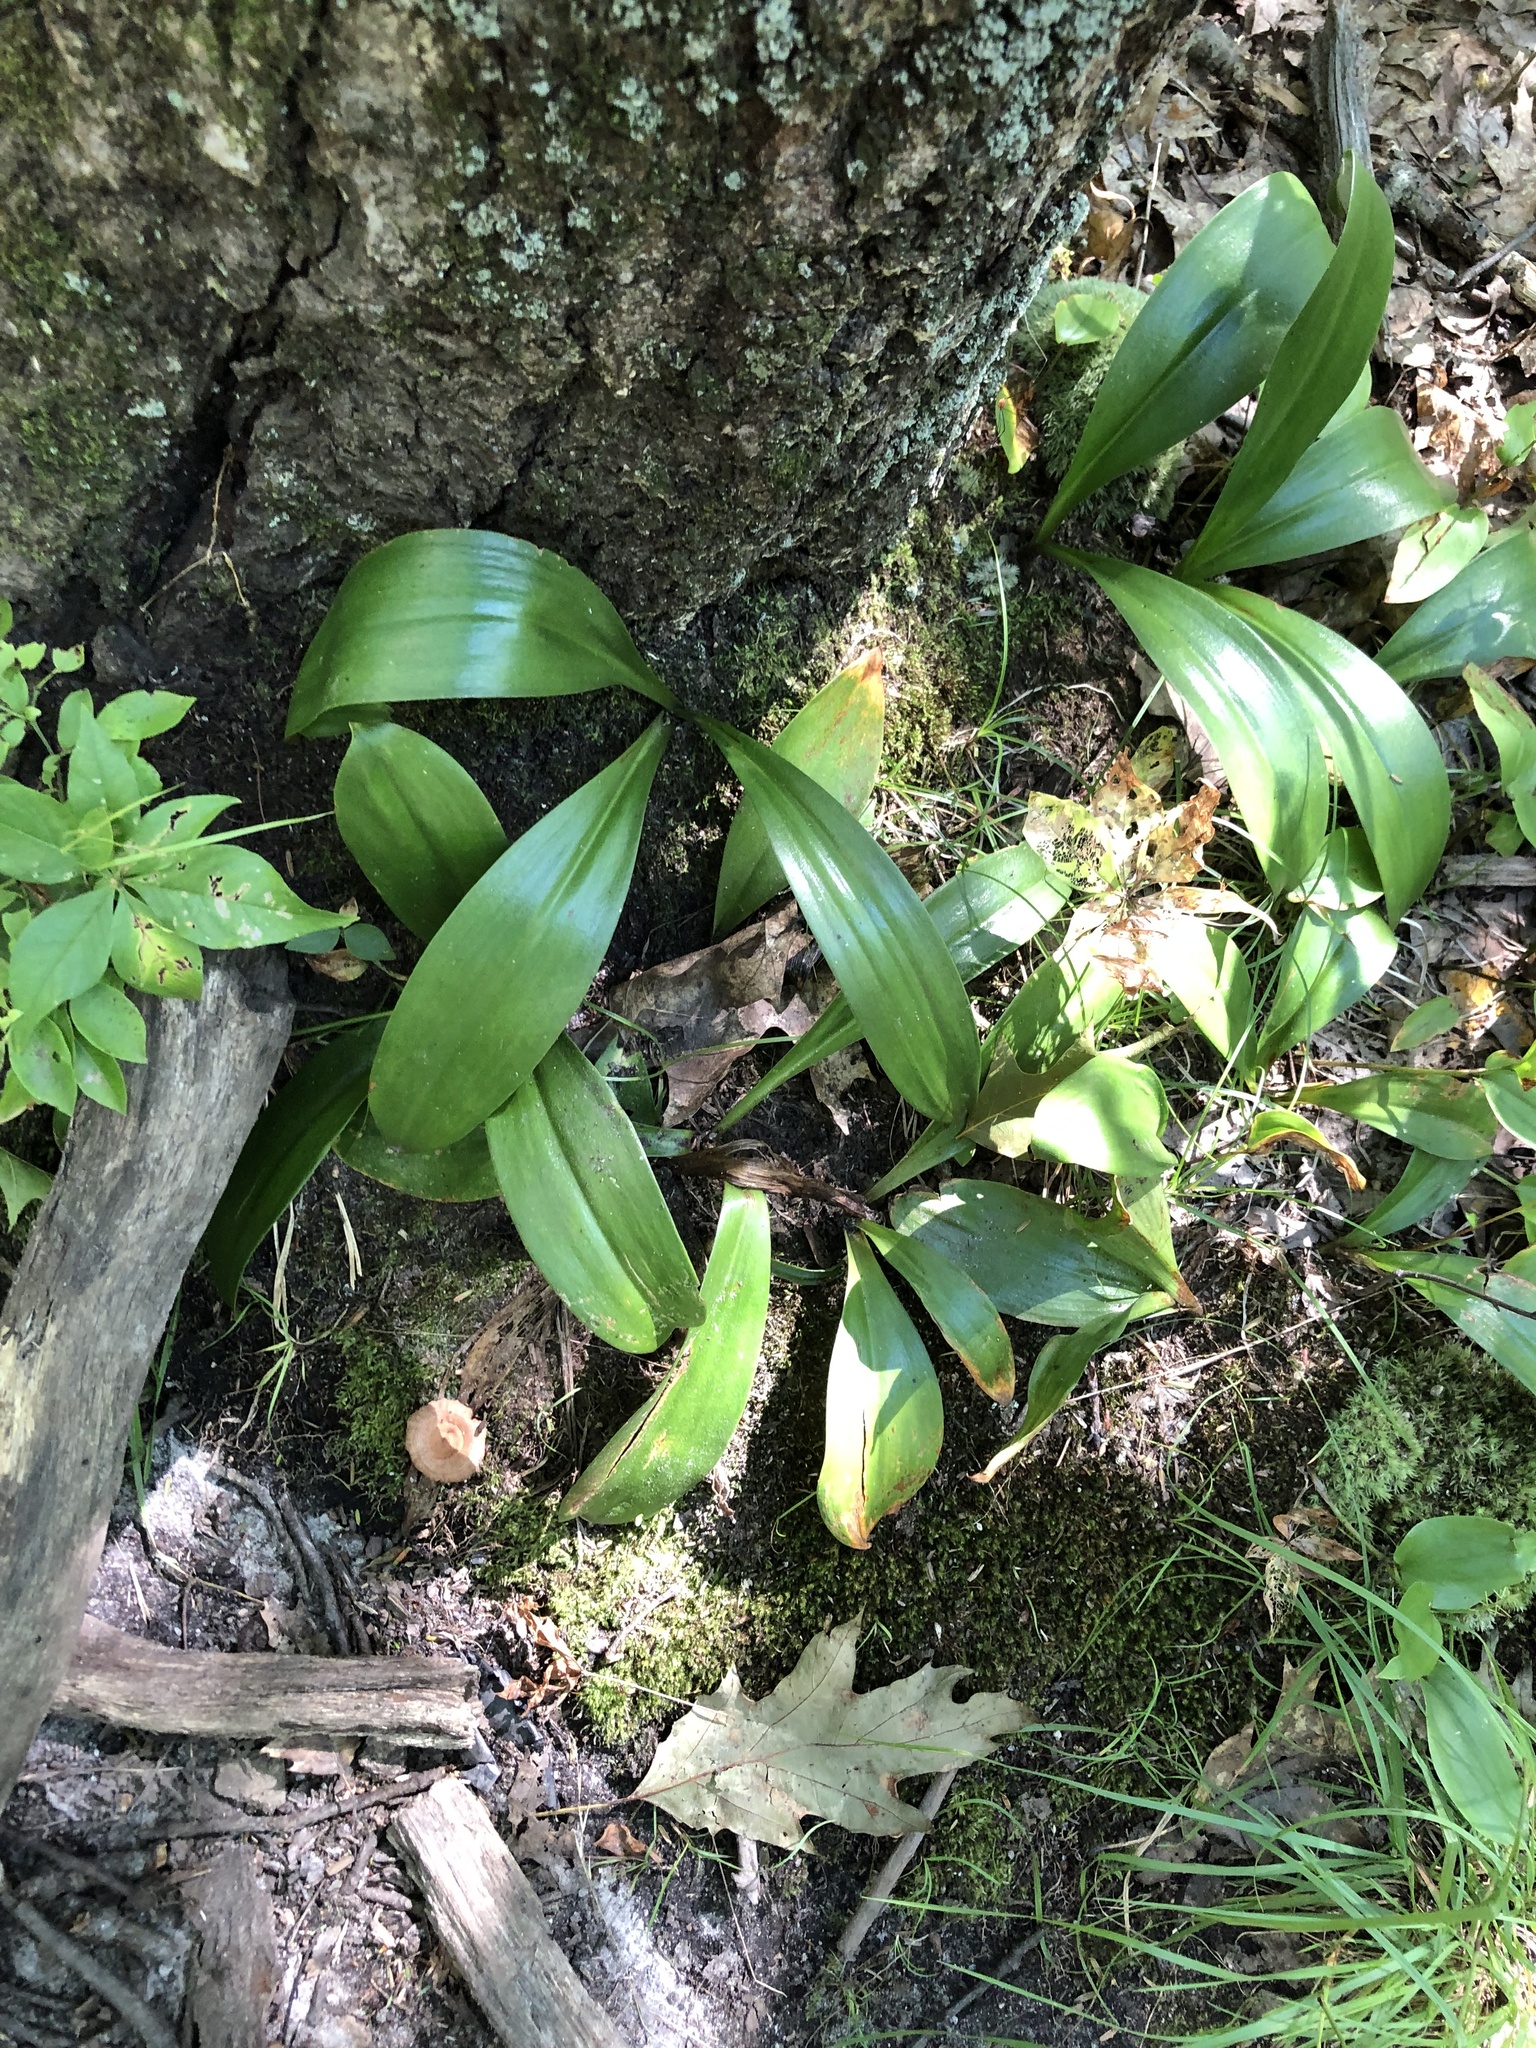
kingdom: Plantae
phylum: Tracheophyta
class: Liliopsida
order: Liliales
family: Liliaceae
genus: Clintonia
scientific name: Clintonia borealis
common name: Yellow clintonia
